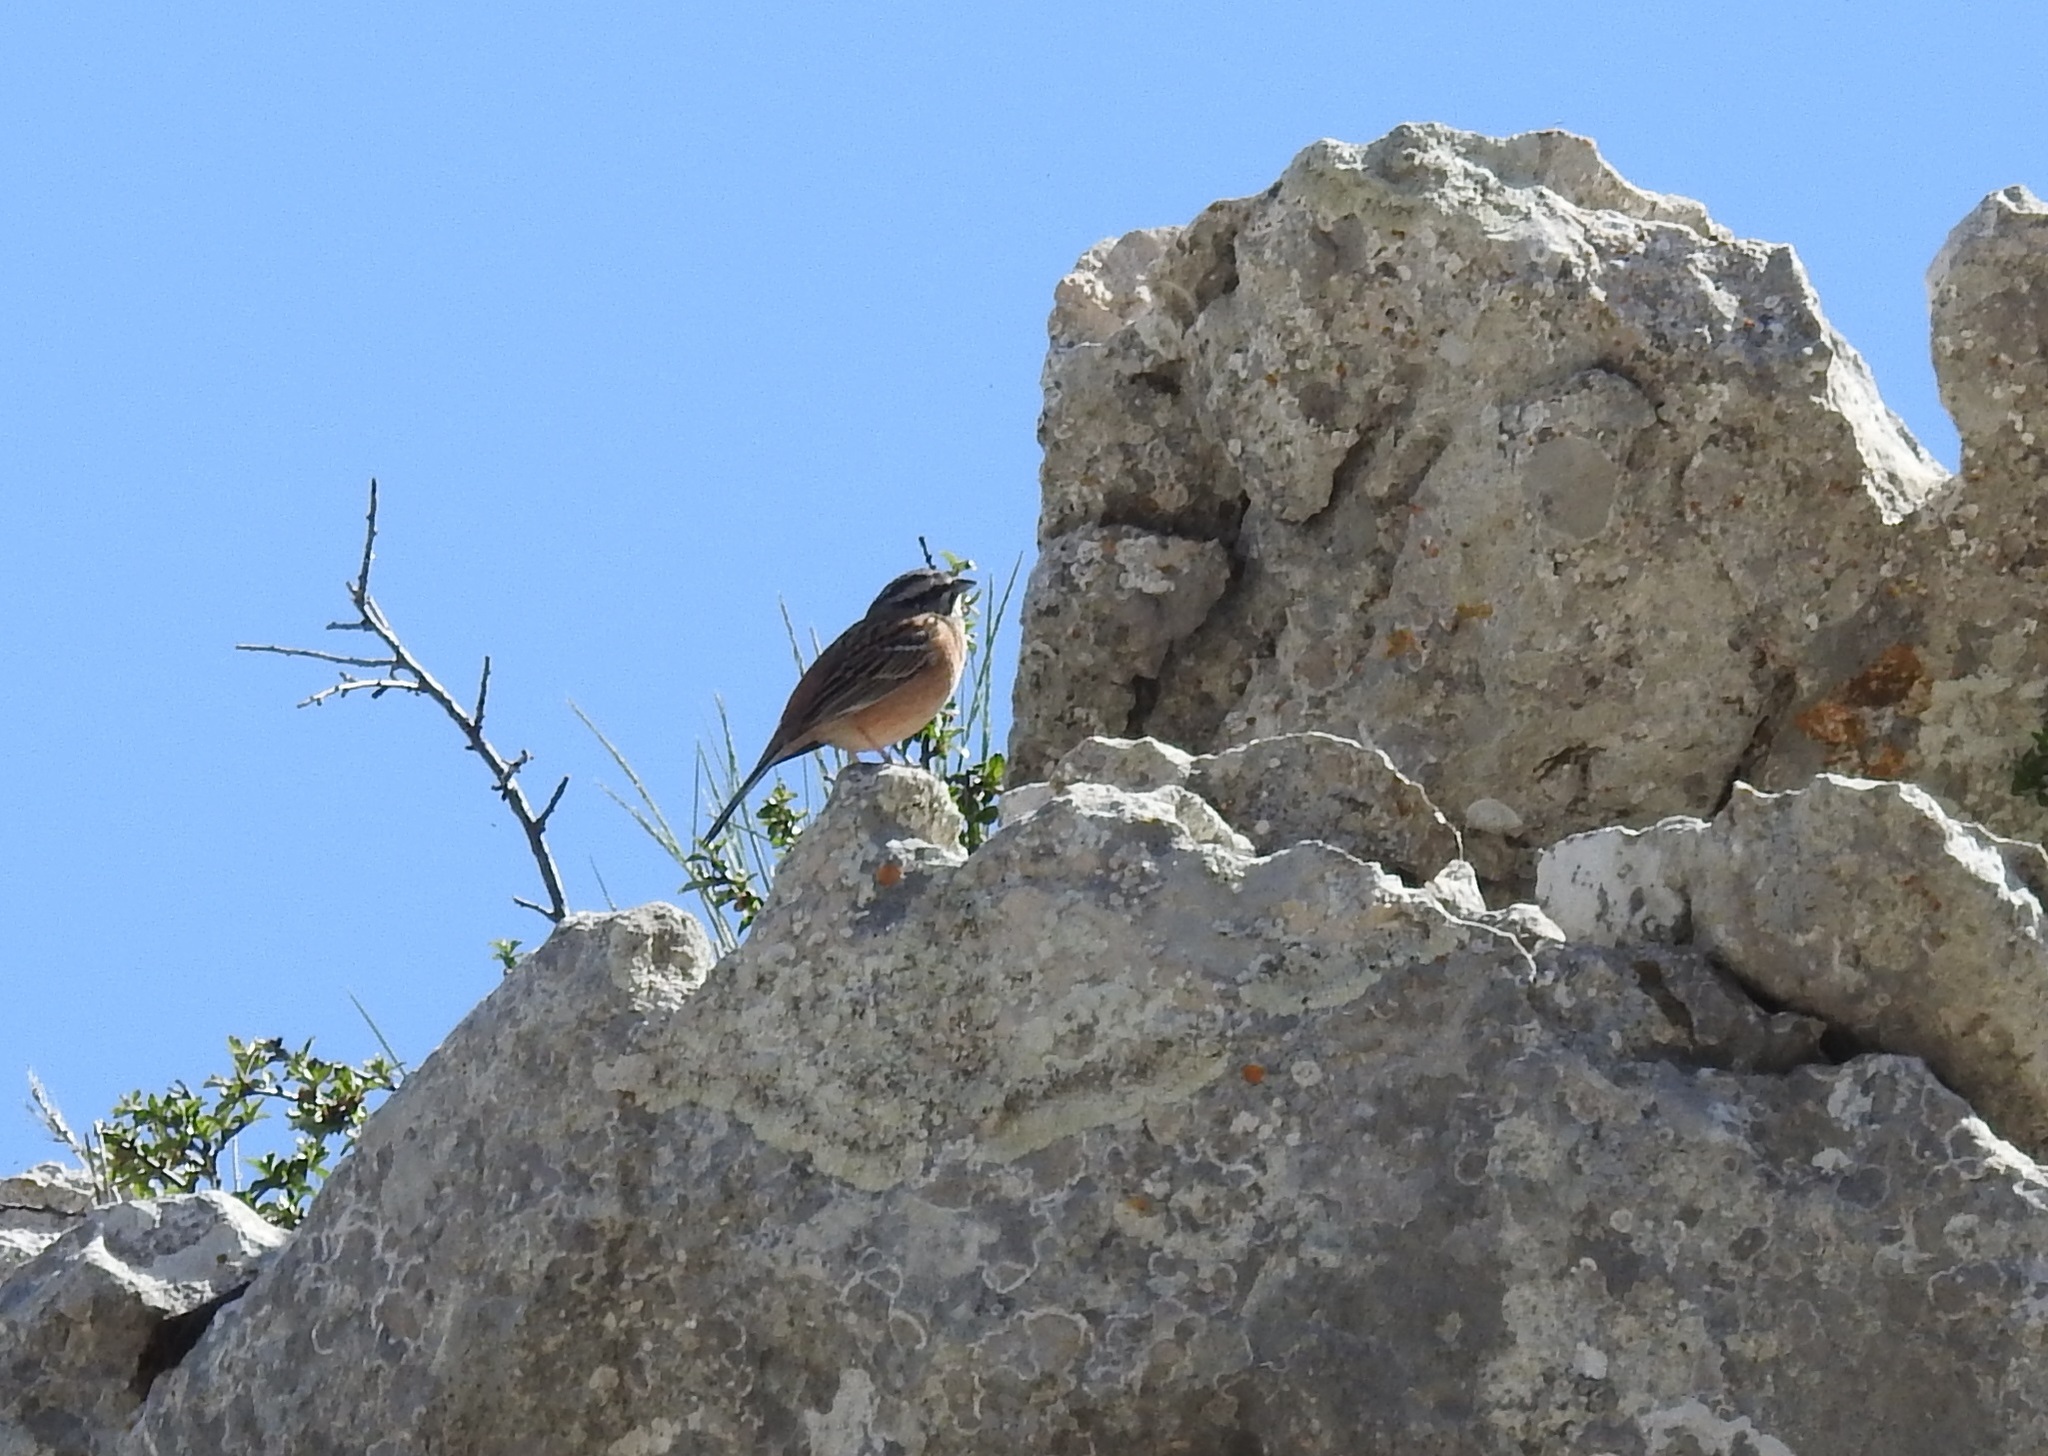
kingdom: Animalia
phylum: Chordata
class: Aves
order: Passeriformes
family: Emberizidae
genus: Emberiza
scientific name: Emberiza cia
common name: Rock bunting
